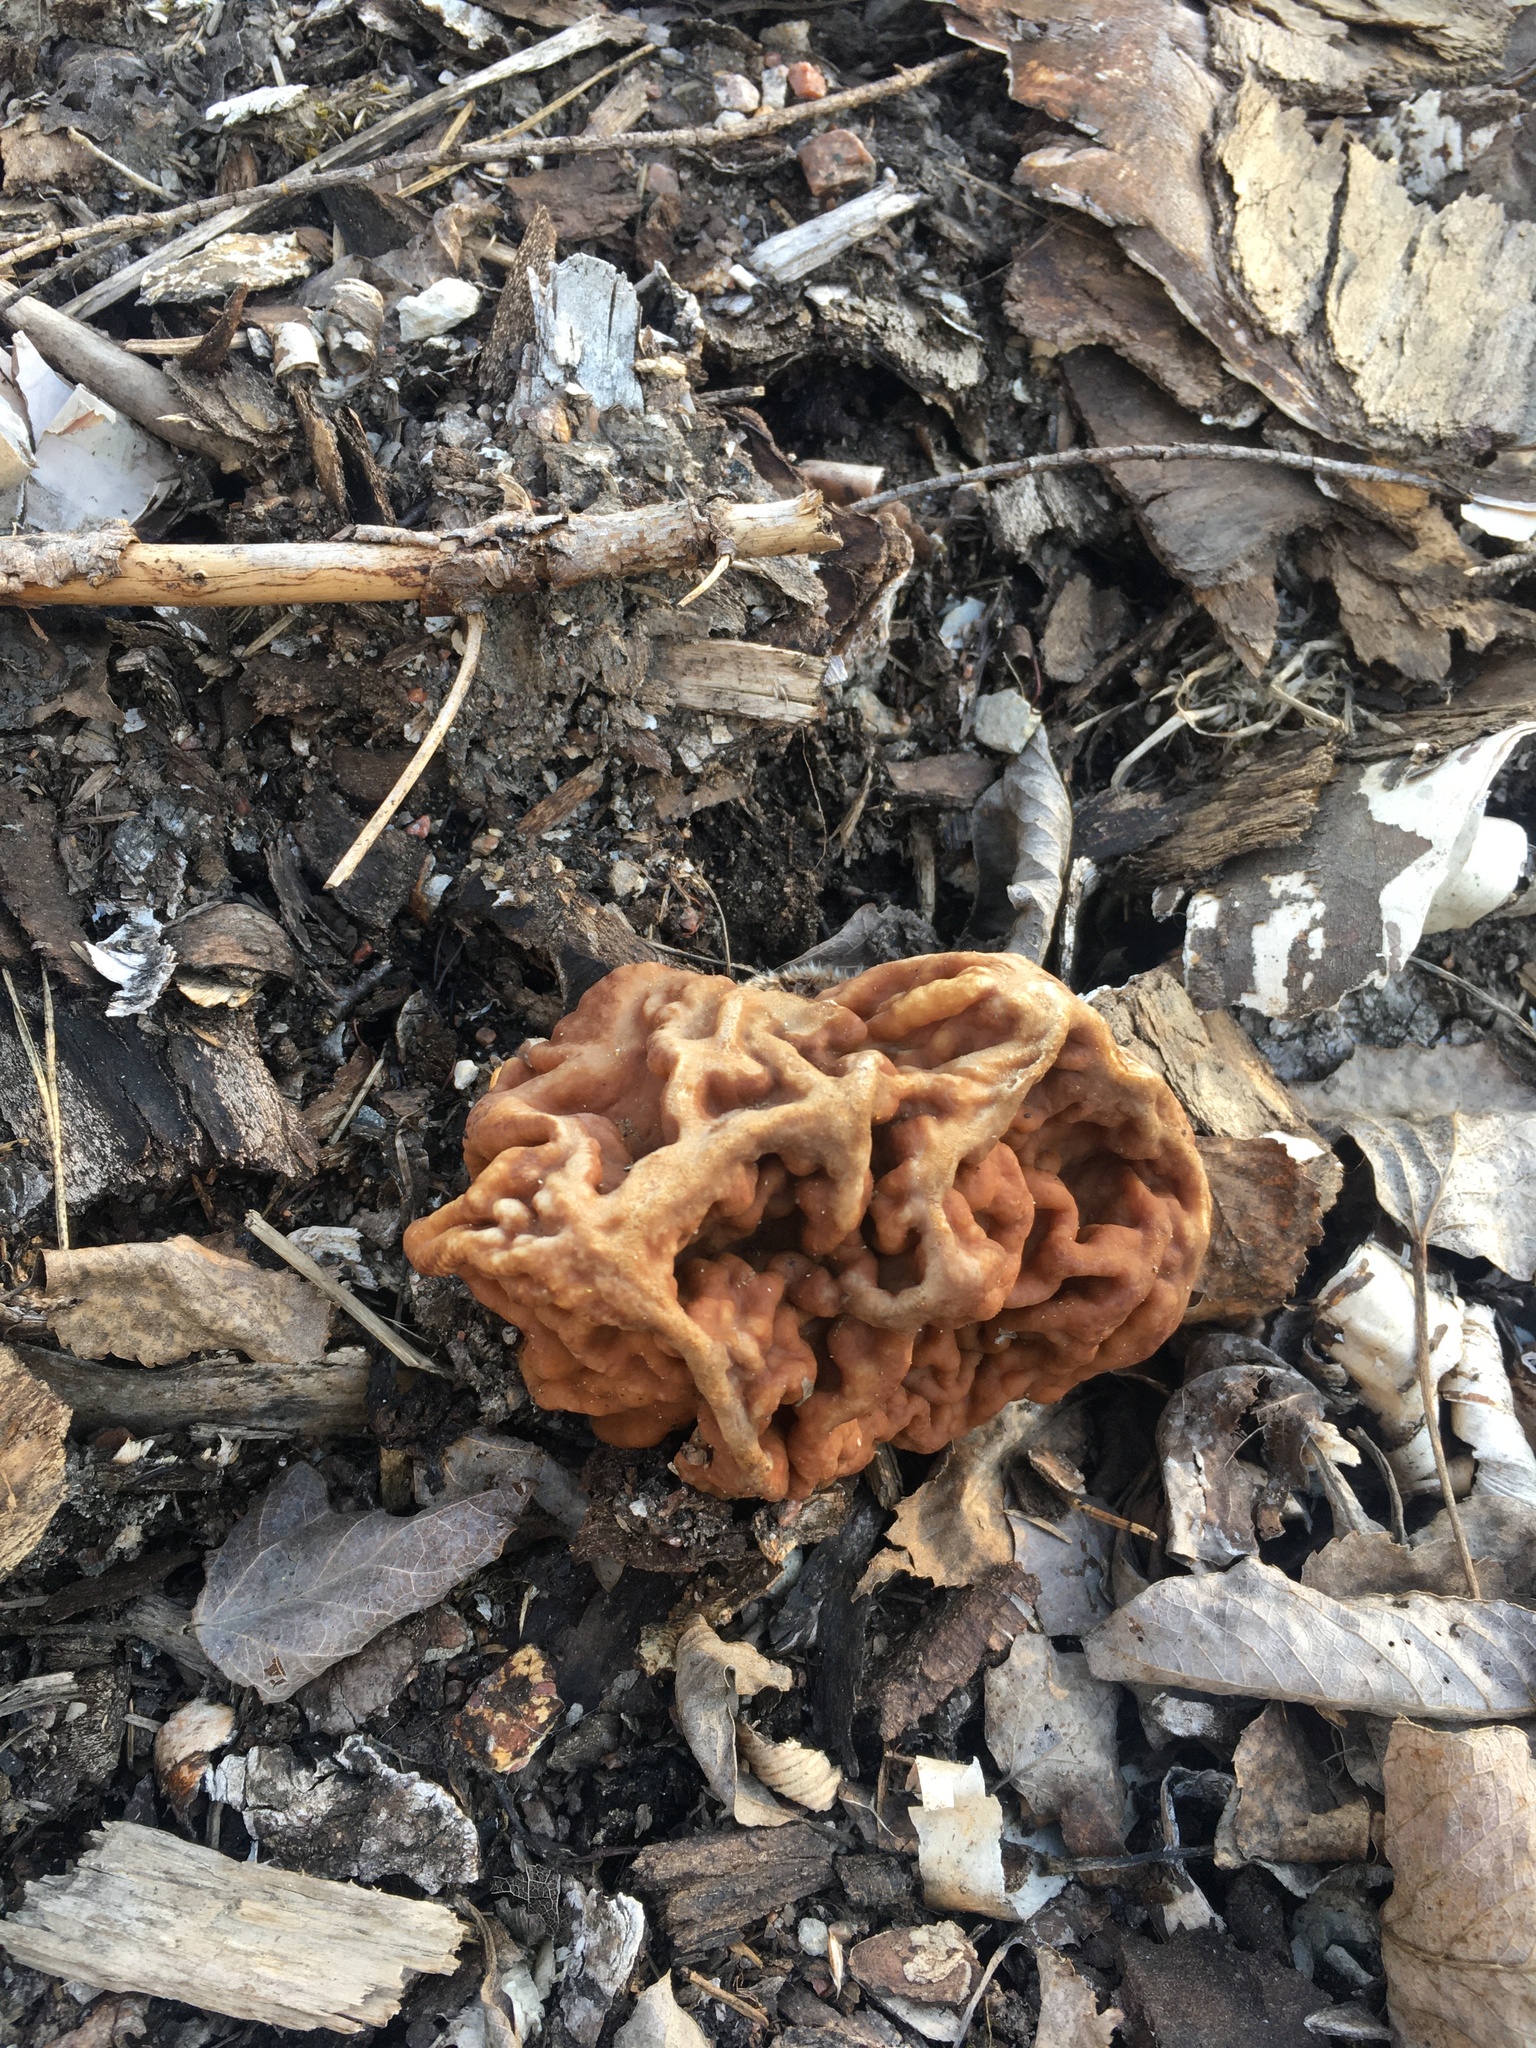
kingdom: Fungi
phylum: Ascomycota
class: Pezizomycetes
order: Pezizales
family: Discinaceae
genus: Gyromitra
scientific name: Gyromitra gigas
